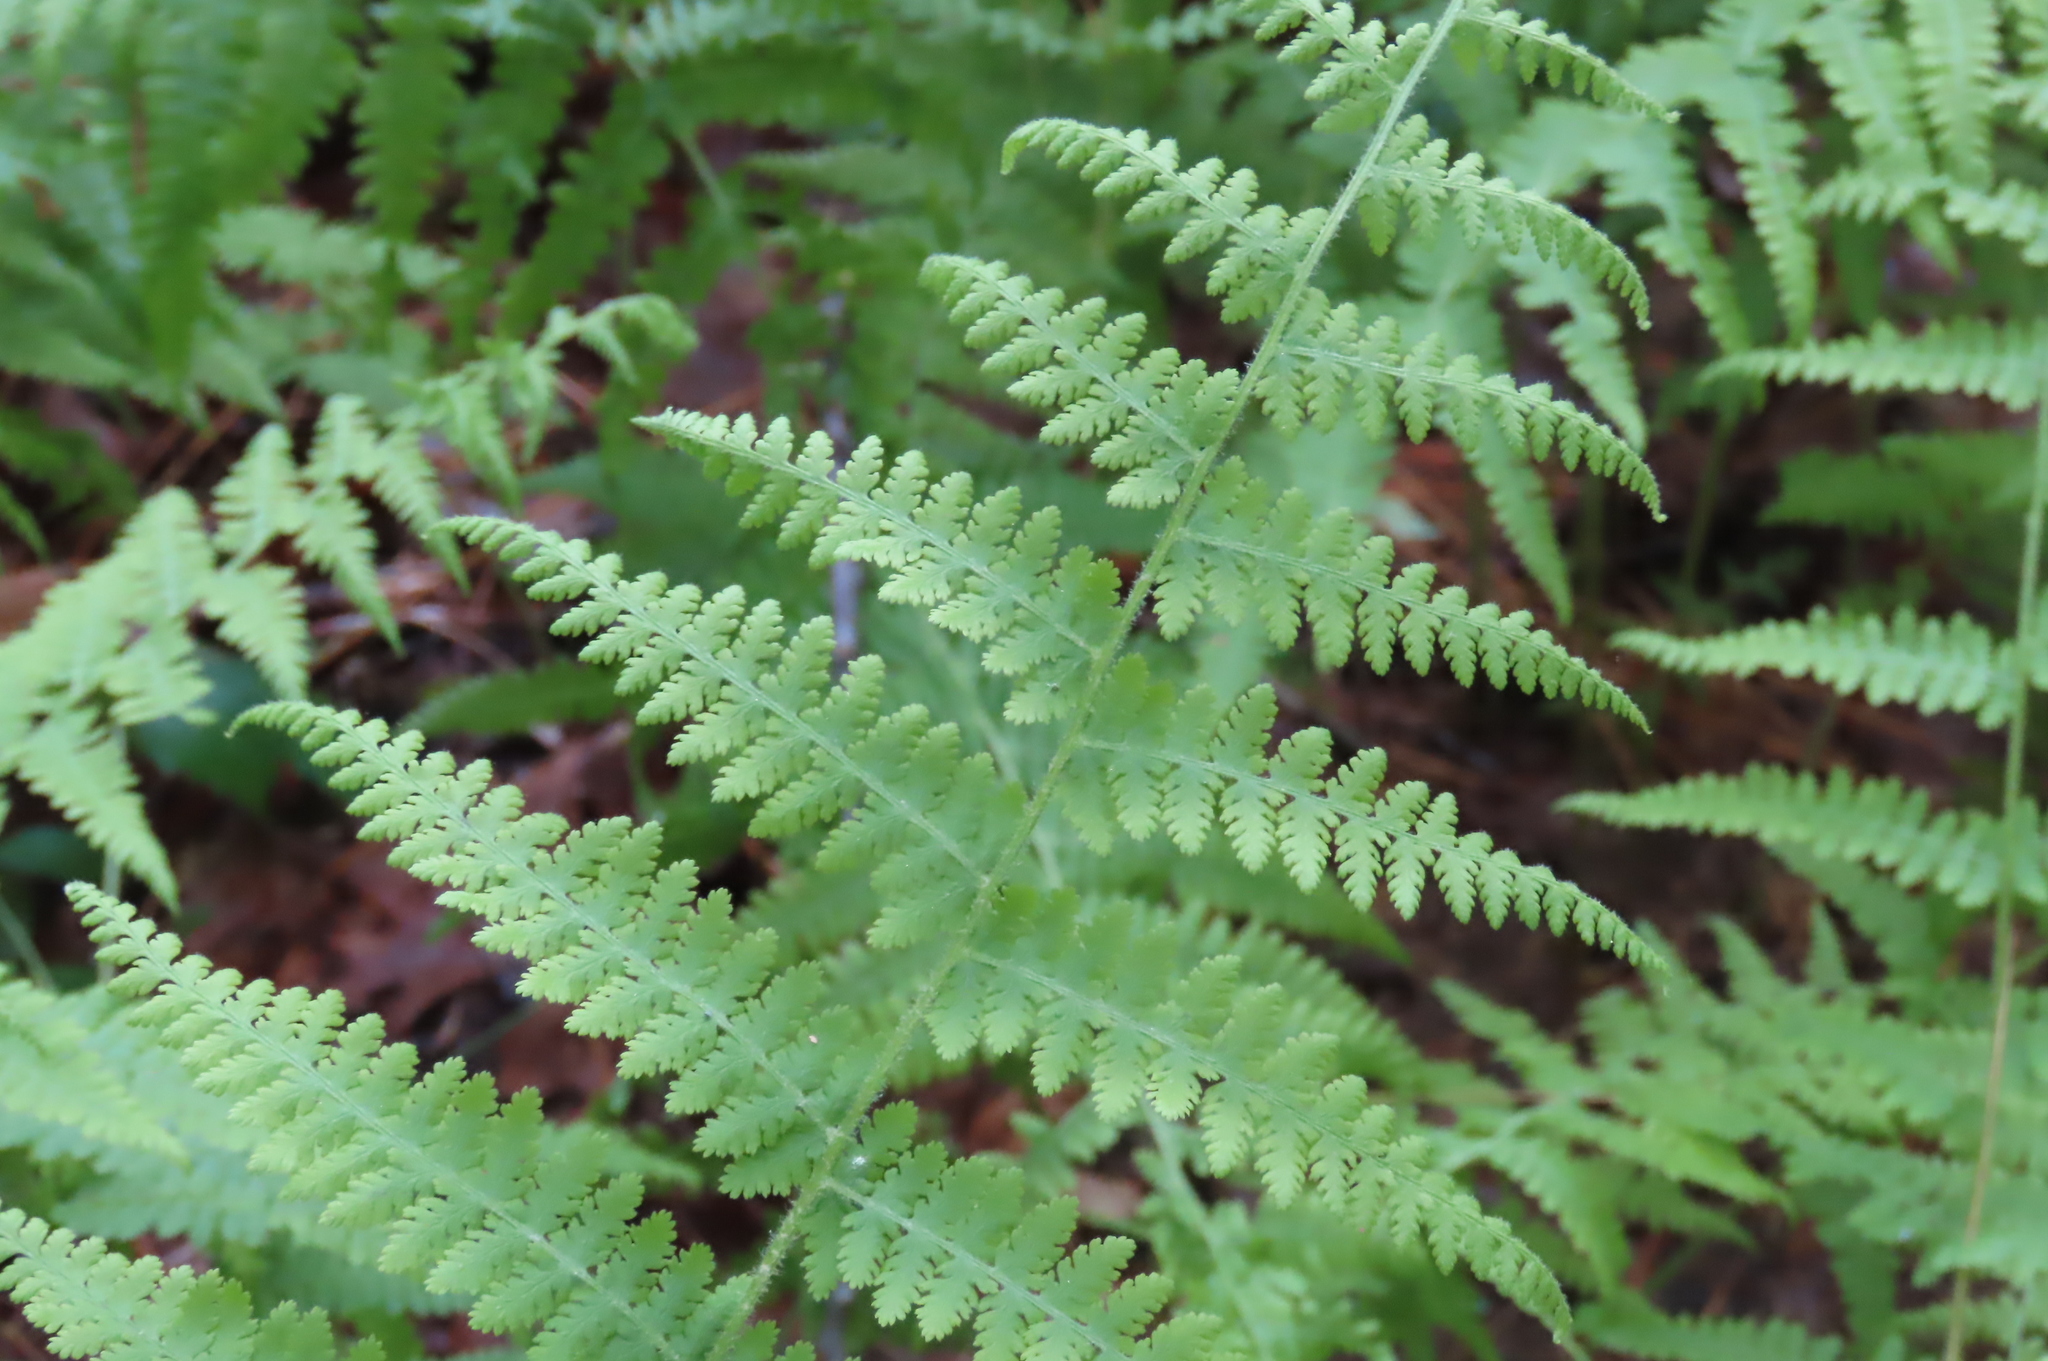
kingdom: Plantae
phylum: Tracheophyta
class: Polypodiopsida
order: Polypodiales
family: Dennstaedtiaceae
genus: Sitobolium
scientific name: Sitobolium punctilobum
